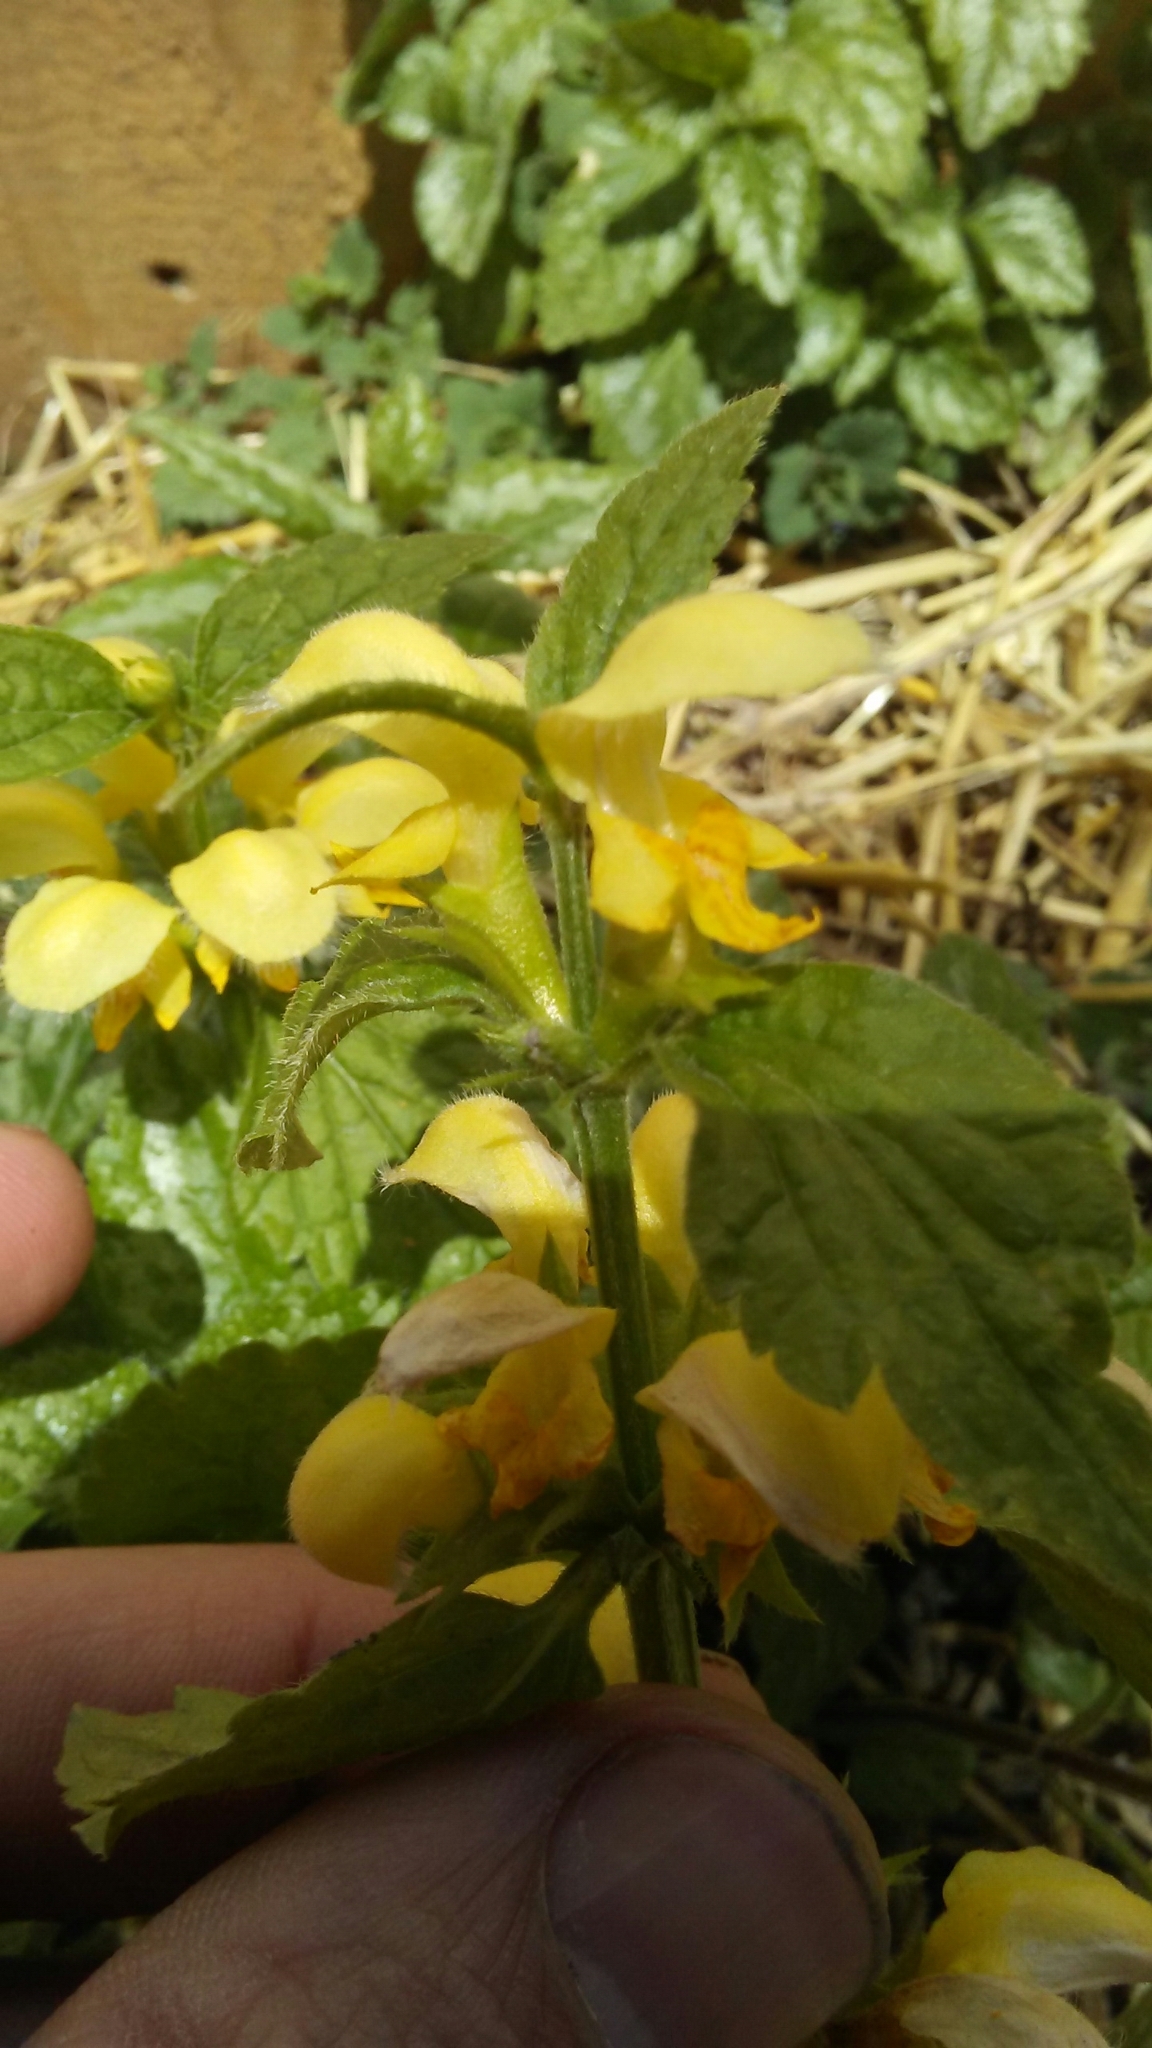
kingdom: Plantae
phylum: Tracheophyta
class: Magnoliopsida
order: Lamiales
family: Lamiaceae
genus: Lamium
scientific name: Lamium galeobdolon
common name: Yellow archangel
